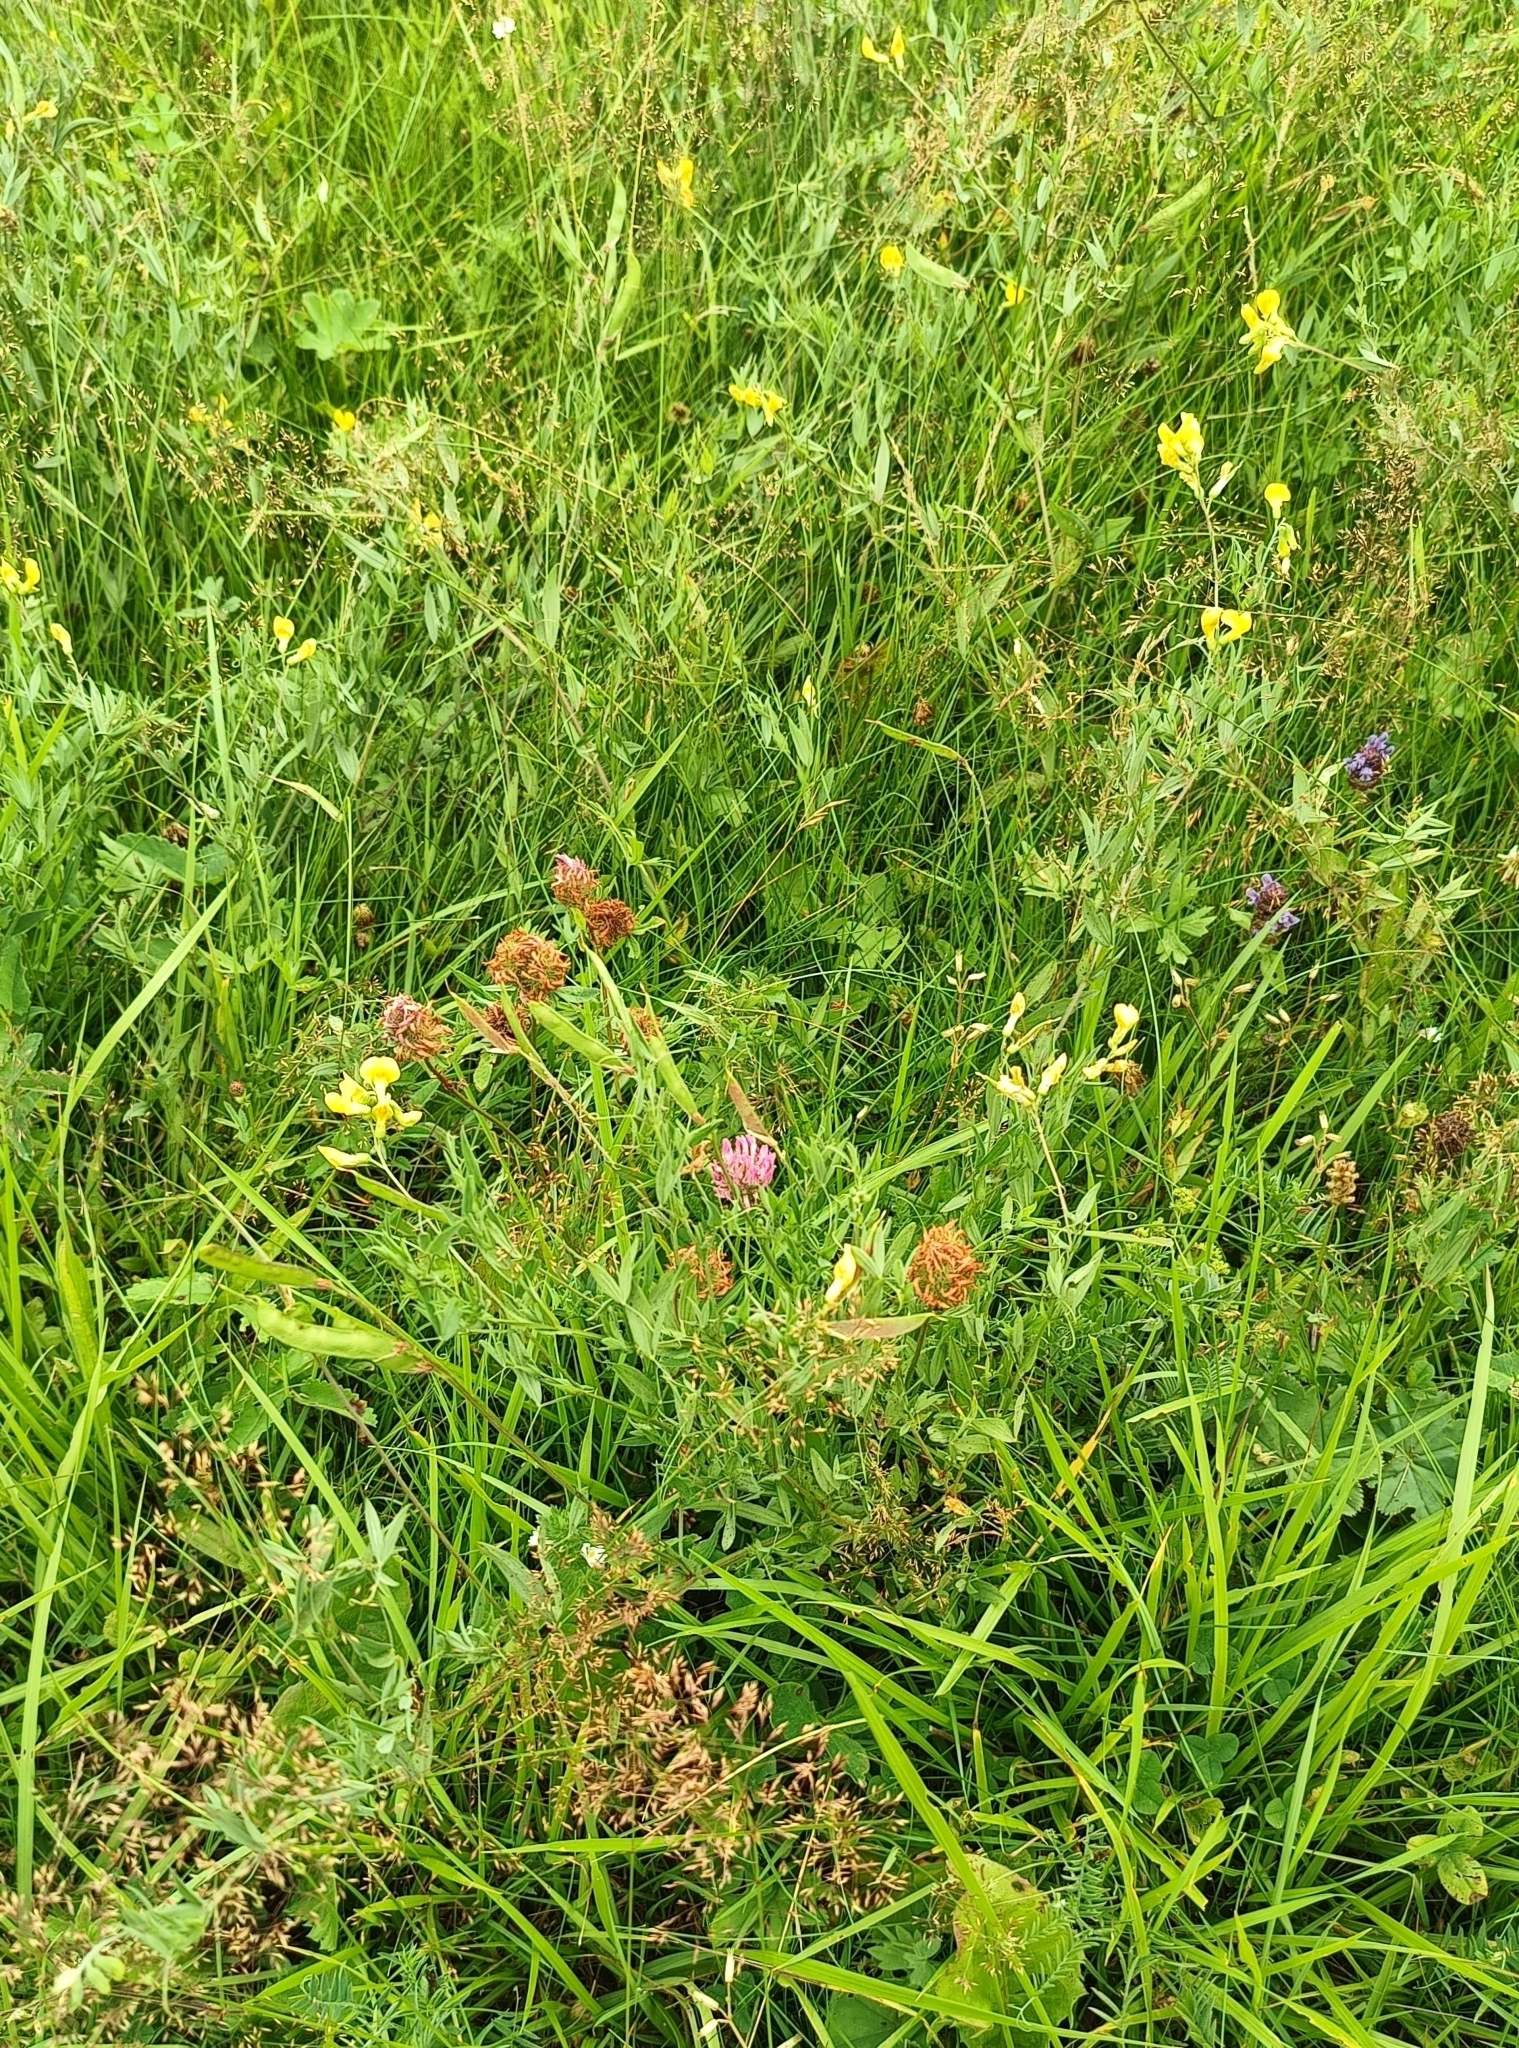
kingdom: Plantae
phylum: Tracheophyta
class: Magnoliopsida
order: Fabales
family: Fabaceae
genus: Lathyrus
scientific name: Lathyrus pratensis
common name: Meadow vetchling
